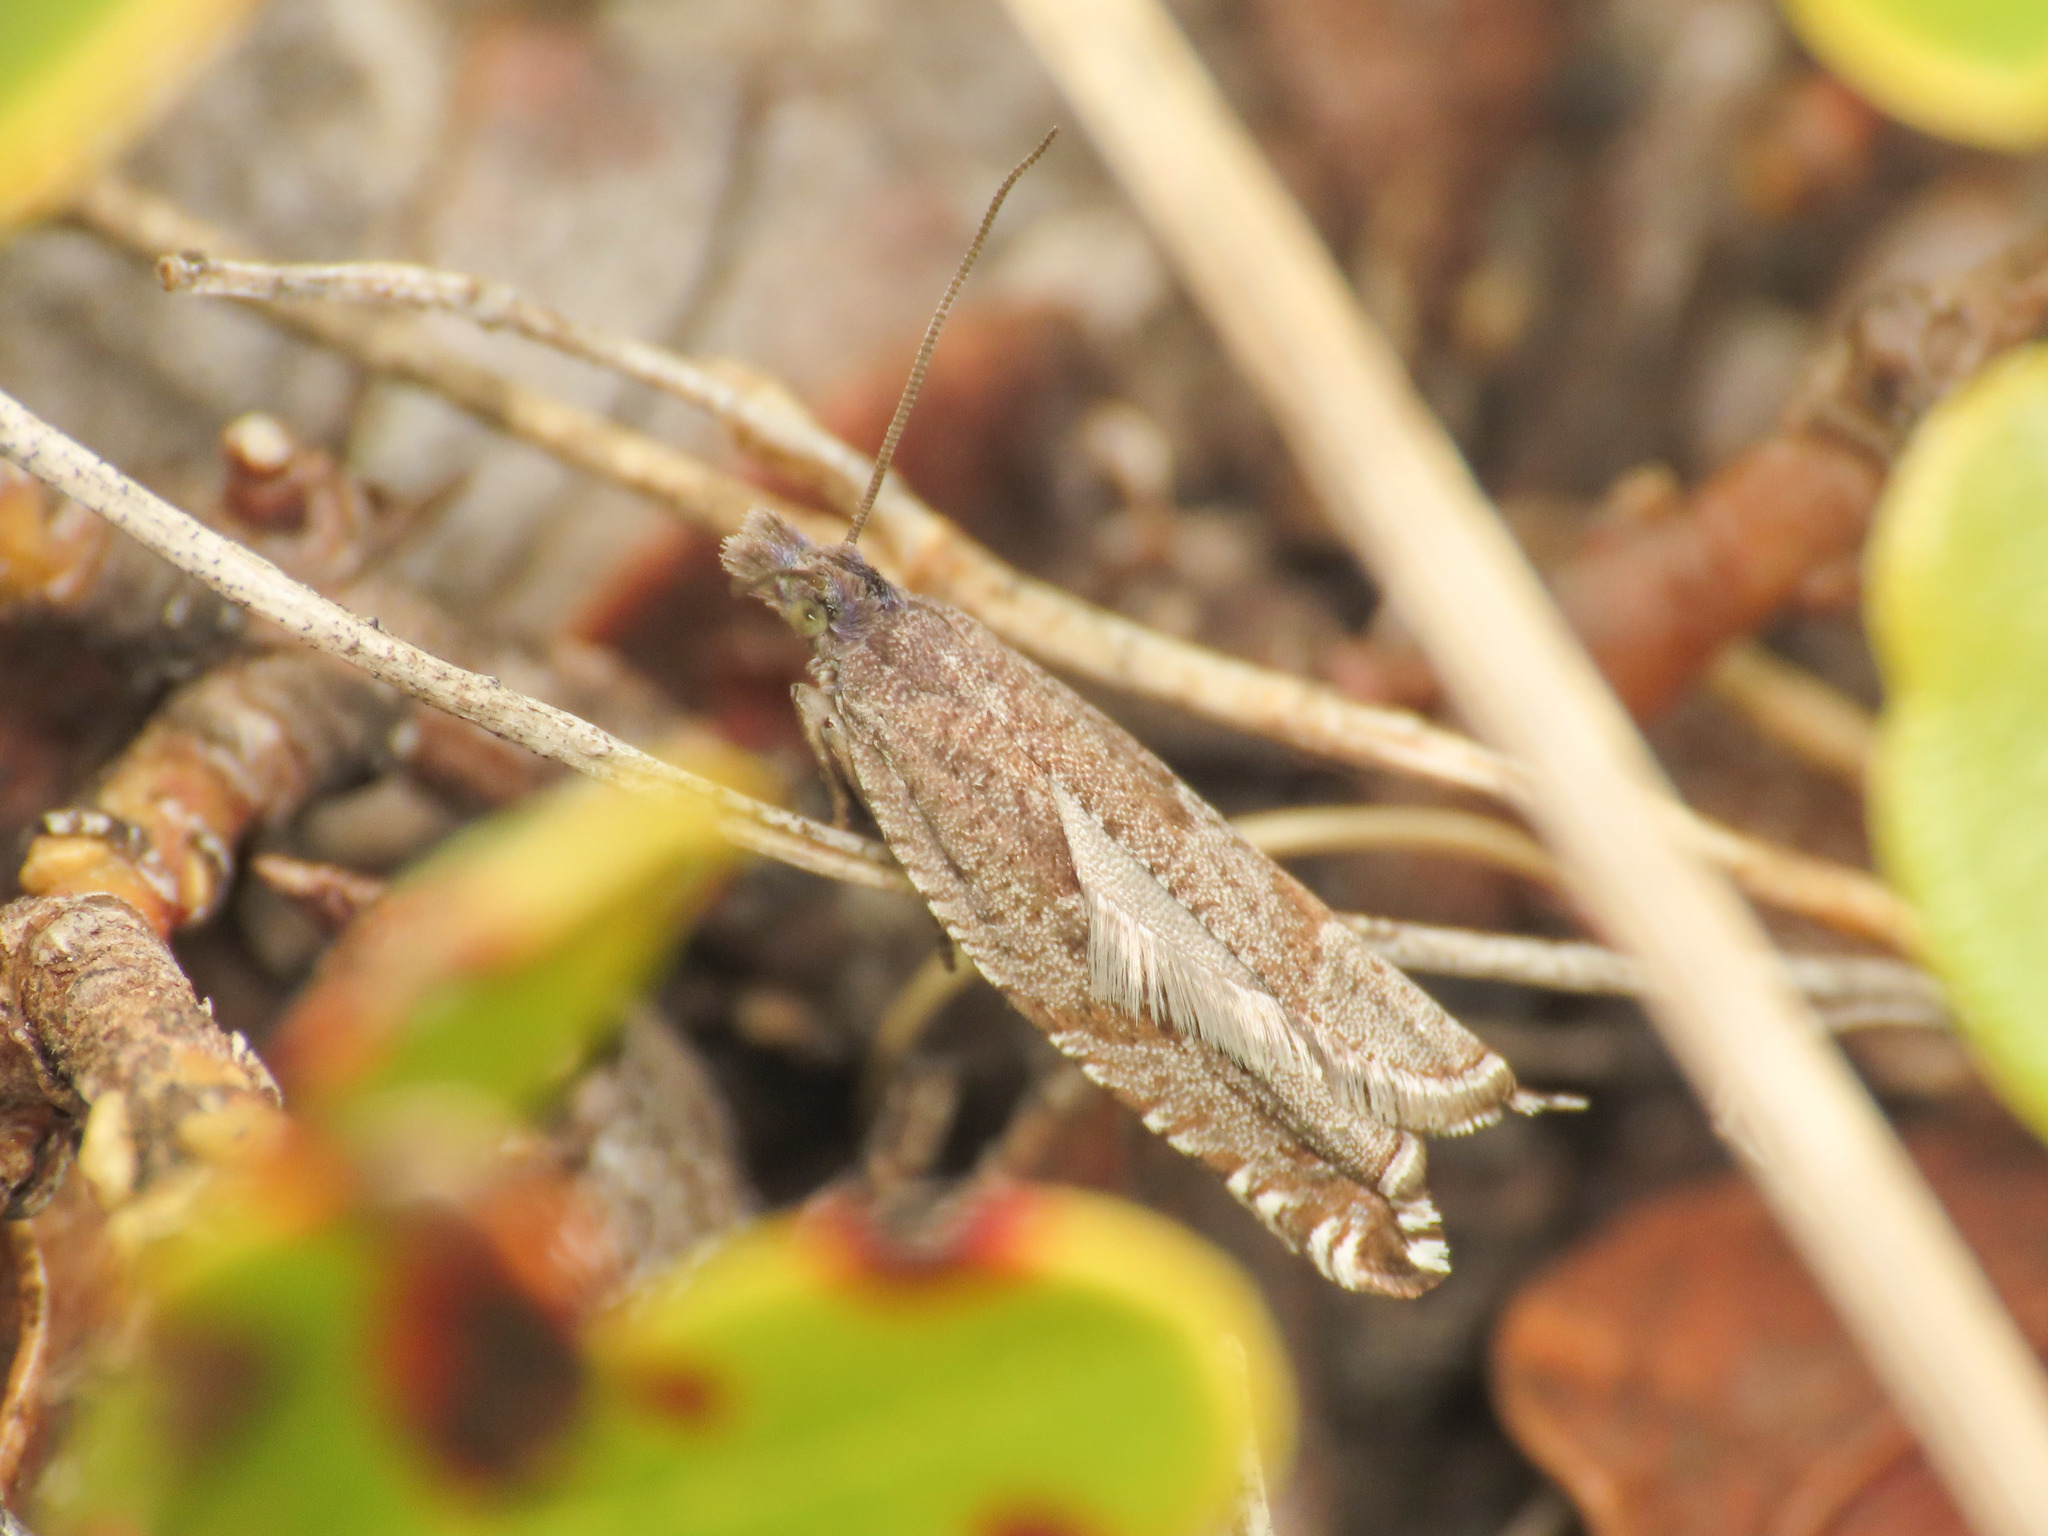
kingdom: Animalia
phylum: Arthropoda
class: Insecta
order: Lepidoptera
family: Tortricidae
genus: Ancylis
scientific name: Ancylis unguicella
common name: Broken-barred roller
